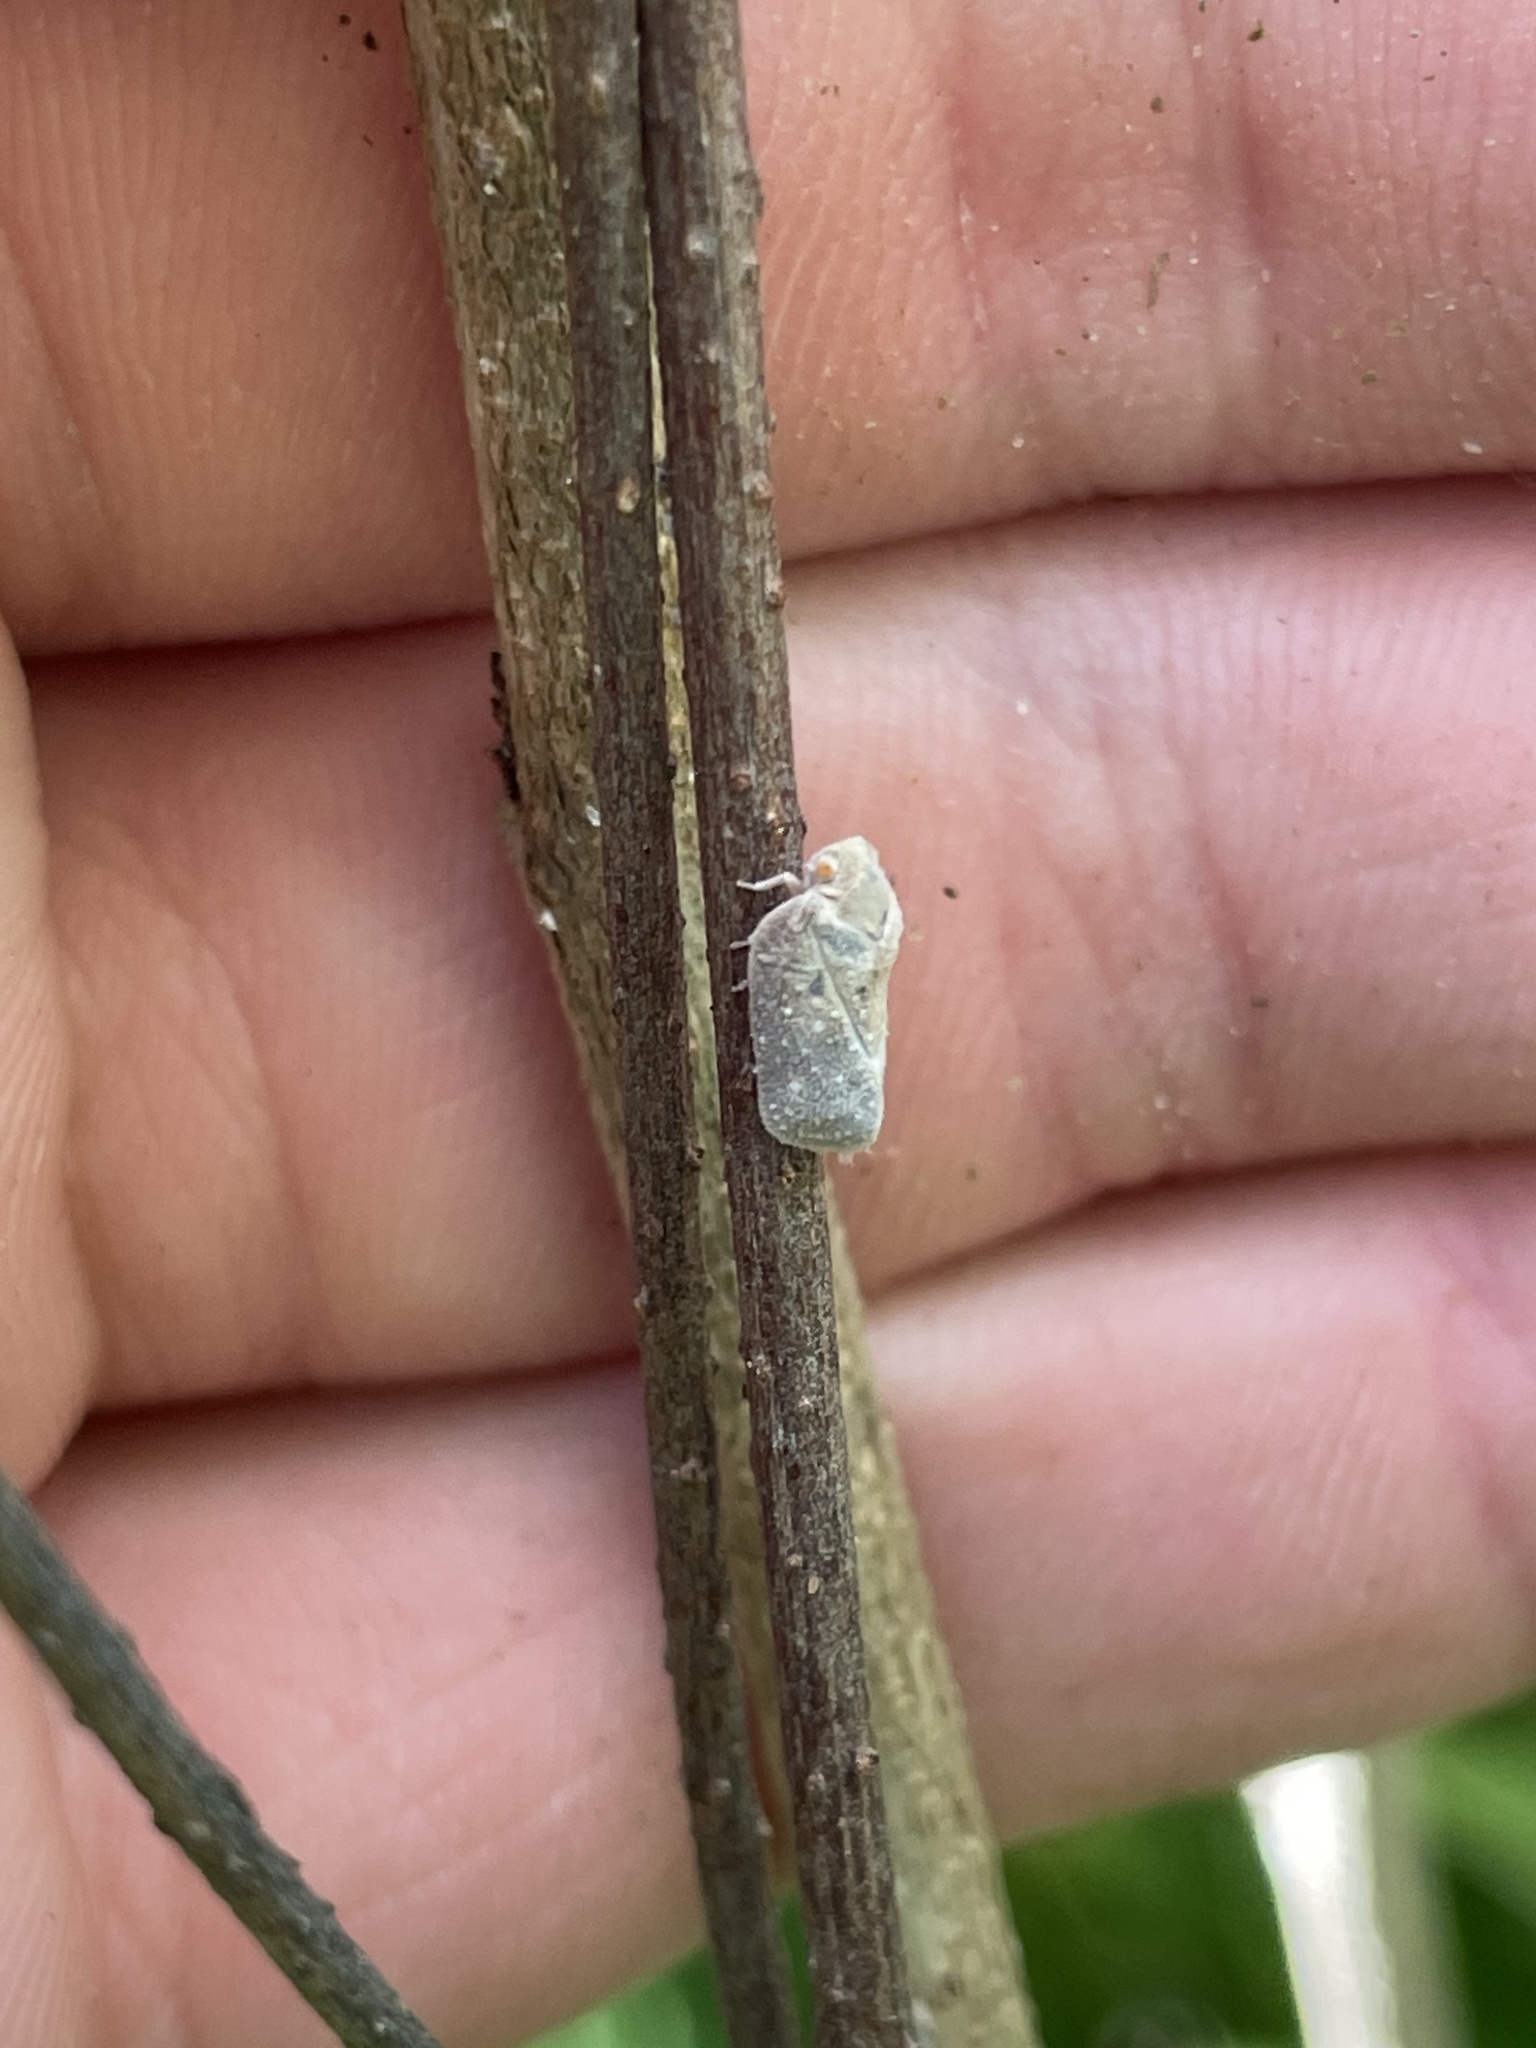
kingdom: Animalia
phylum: Arthropoda
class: Insecta
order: Hemiptera
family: Flatidae
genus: Melormenis
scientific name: Melormenis basalis
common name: Puerto rican planthopper
